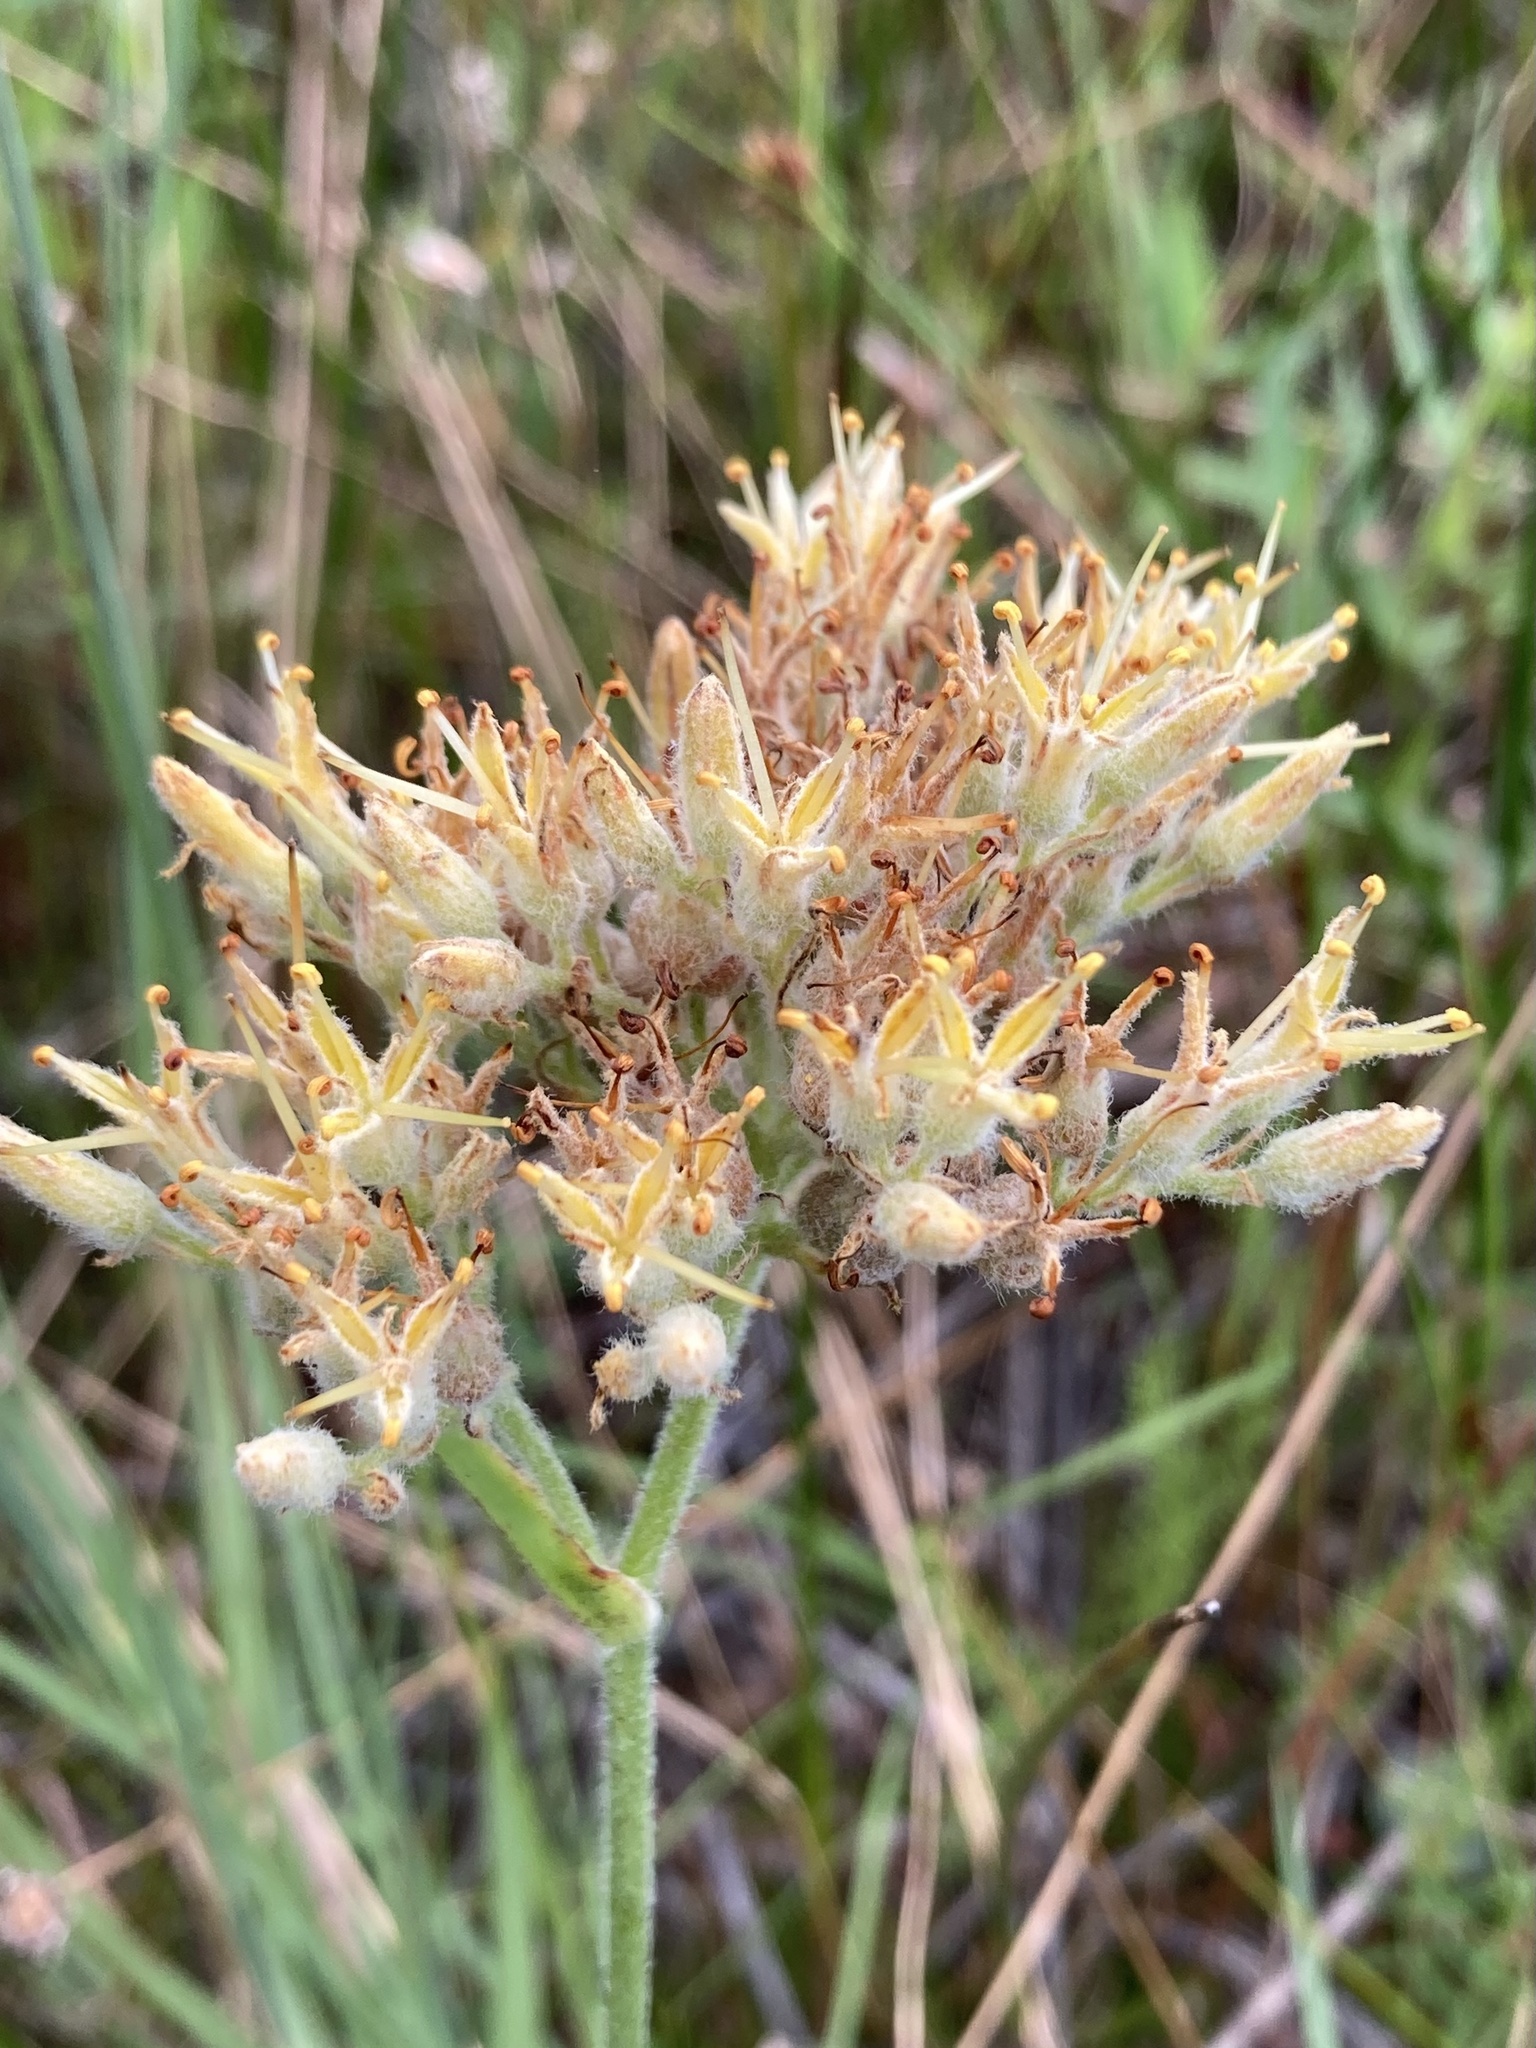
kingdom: Plantae
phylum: Tracheophyta
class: Liliopsida
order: Commelinales
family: Haemodoraceae
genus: Lachnanthes
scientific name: Lachnanthes caroliana
